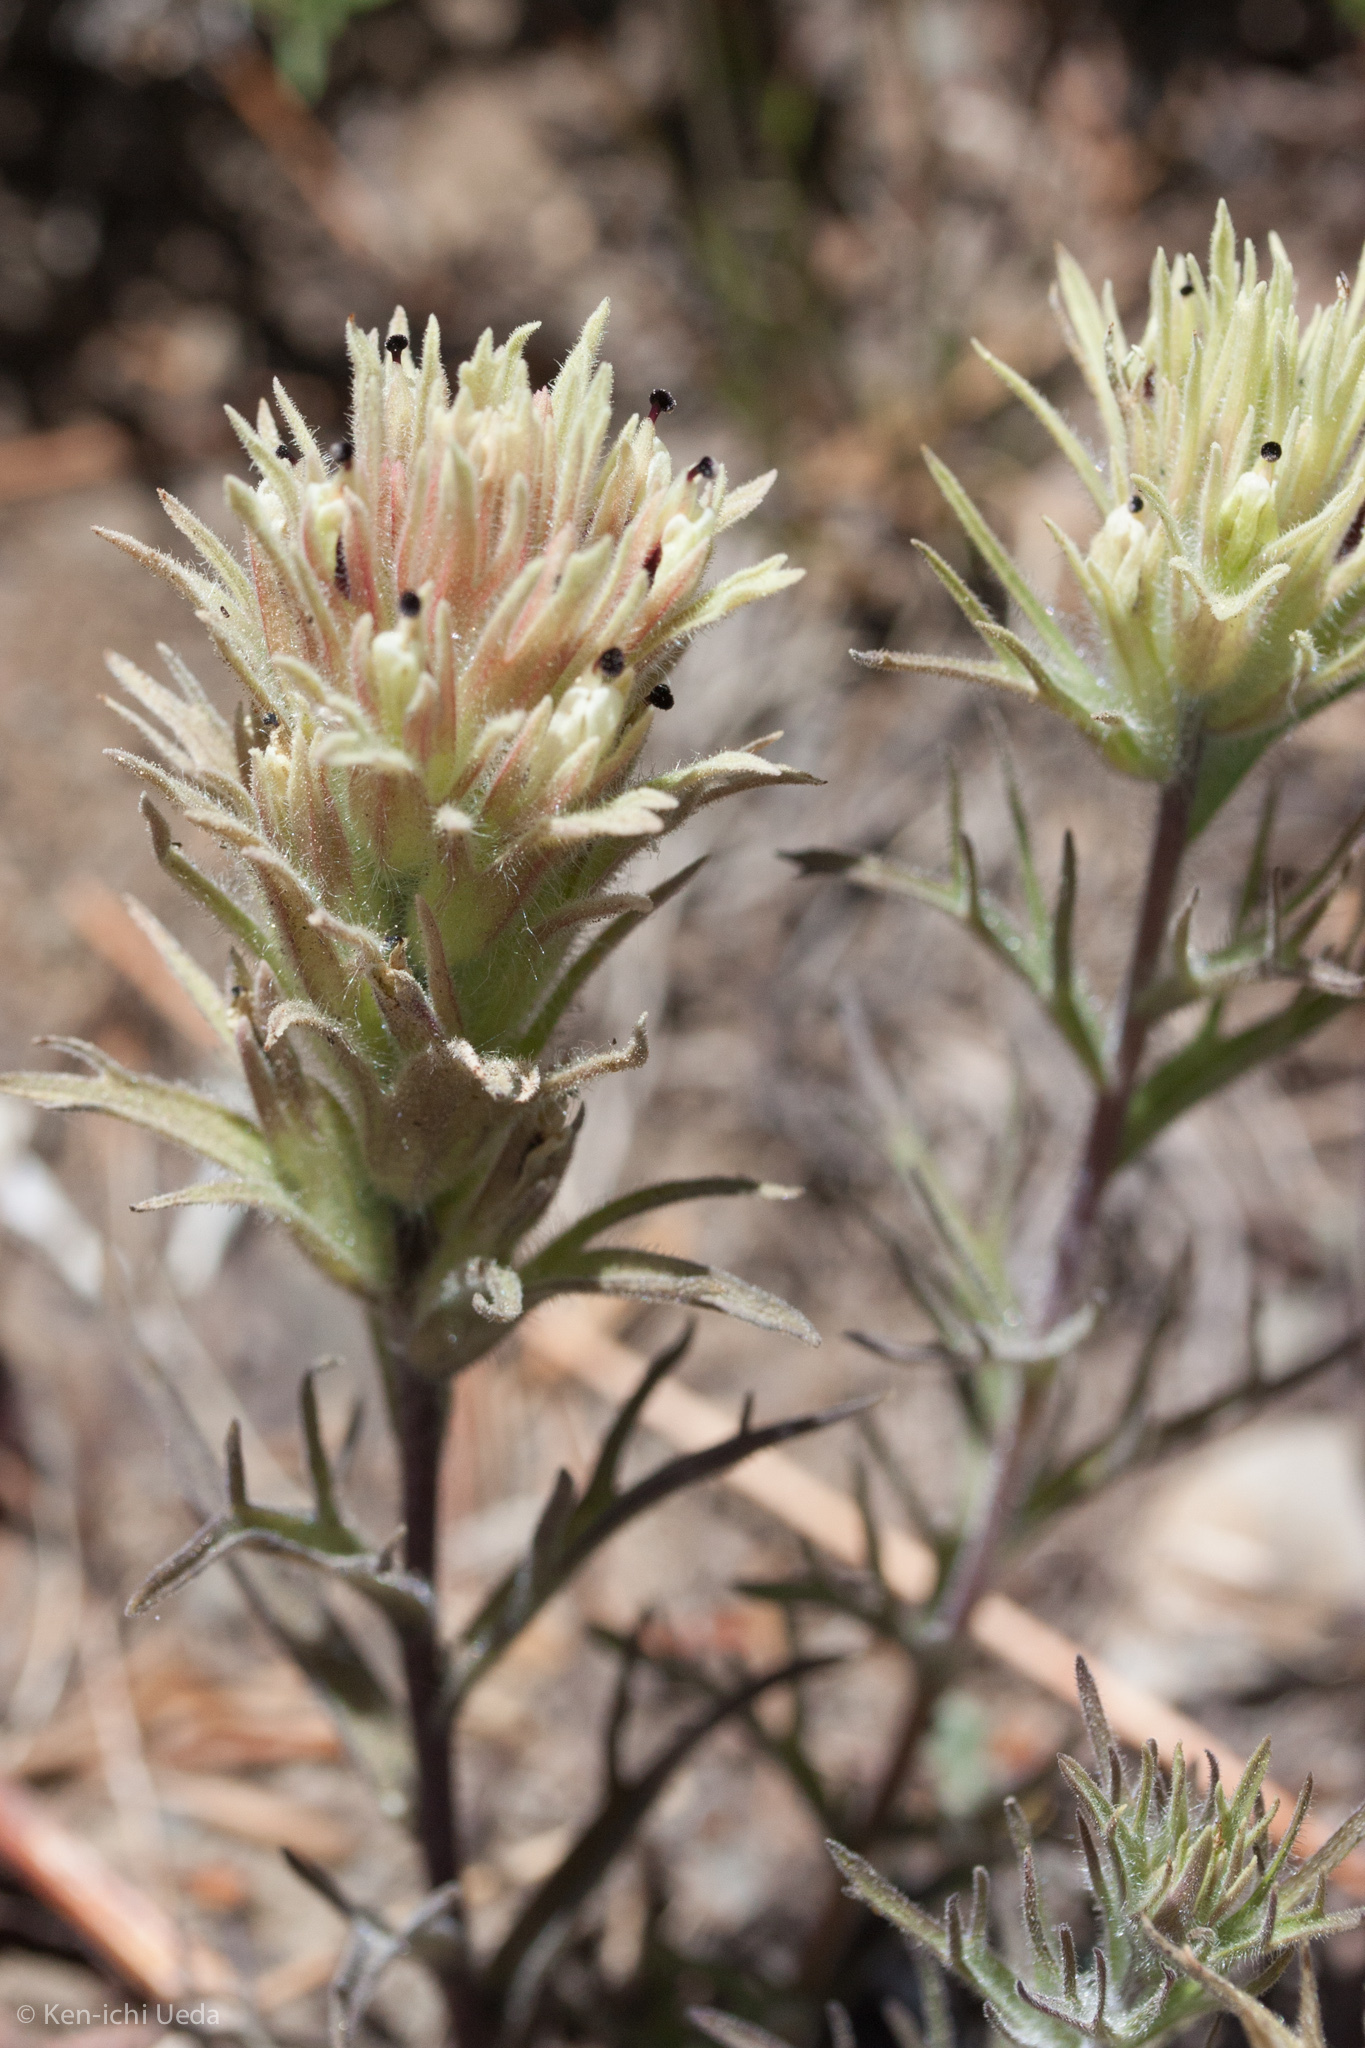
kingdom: Plantae
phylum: Tracheophyta
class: Magnoliopsida
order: Lamiales
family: Orobanchaceae
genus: Castilleja
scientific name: Castilleja nana
